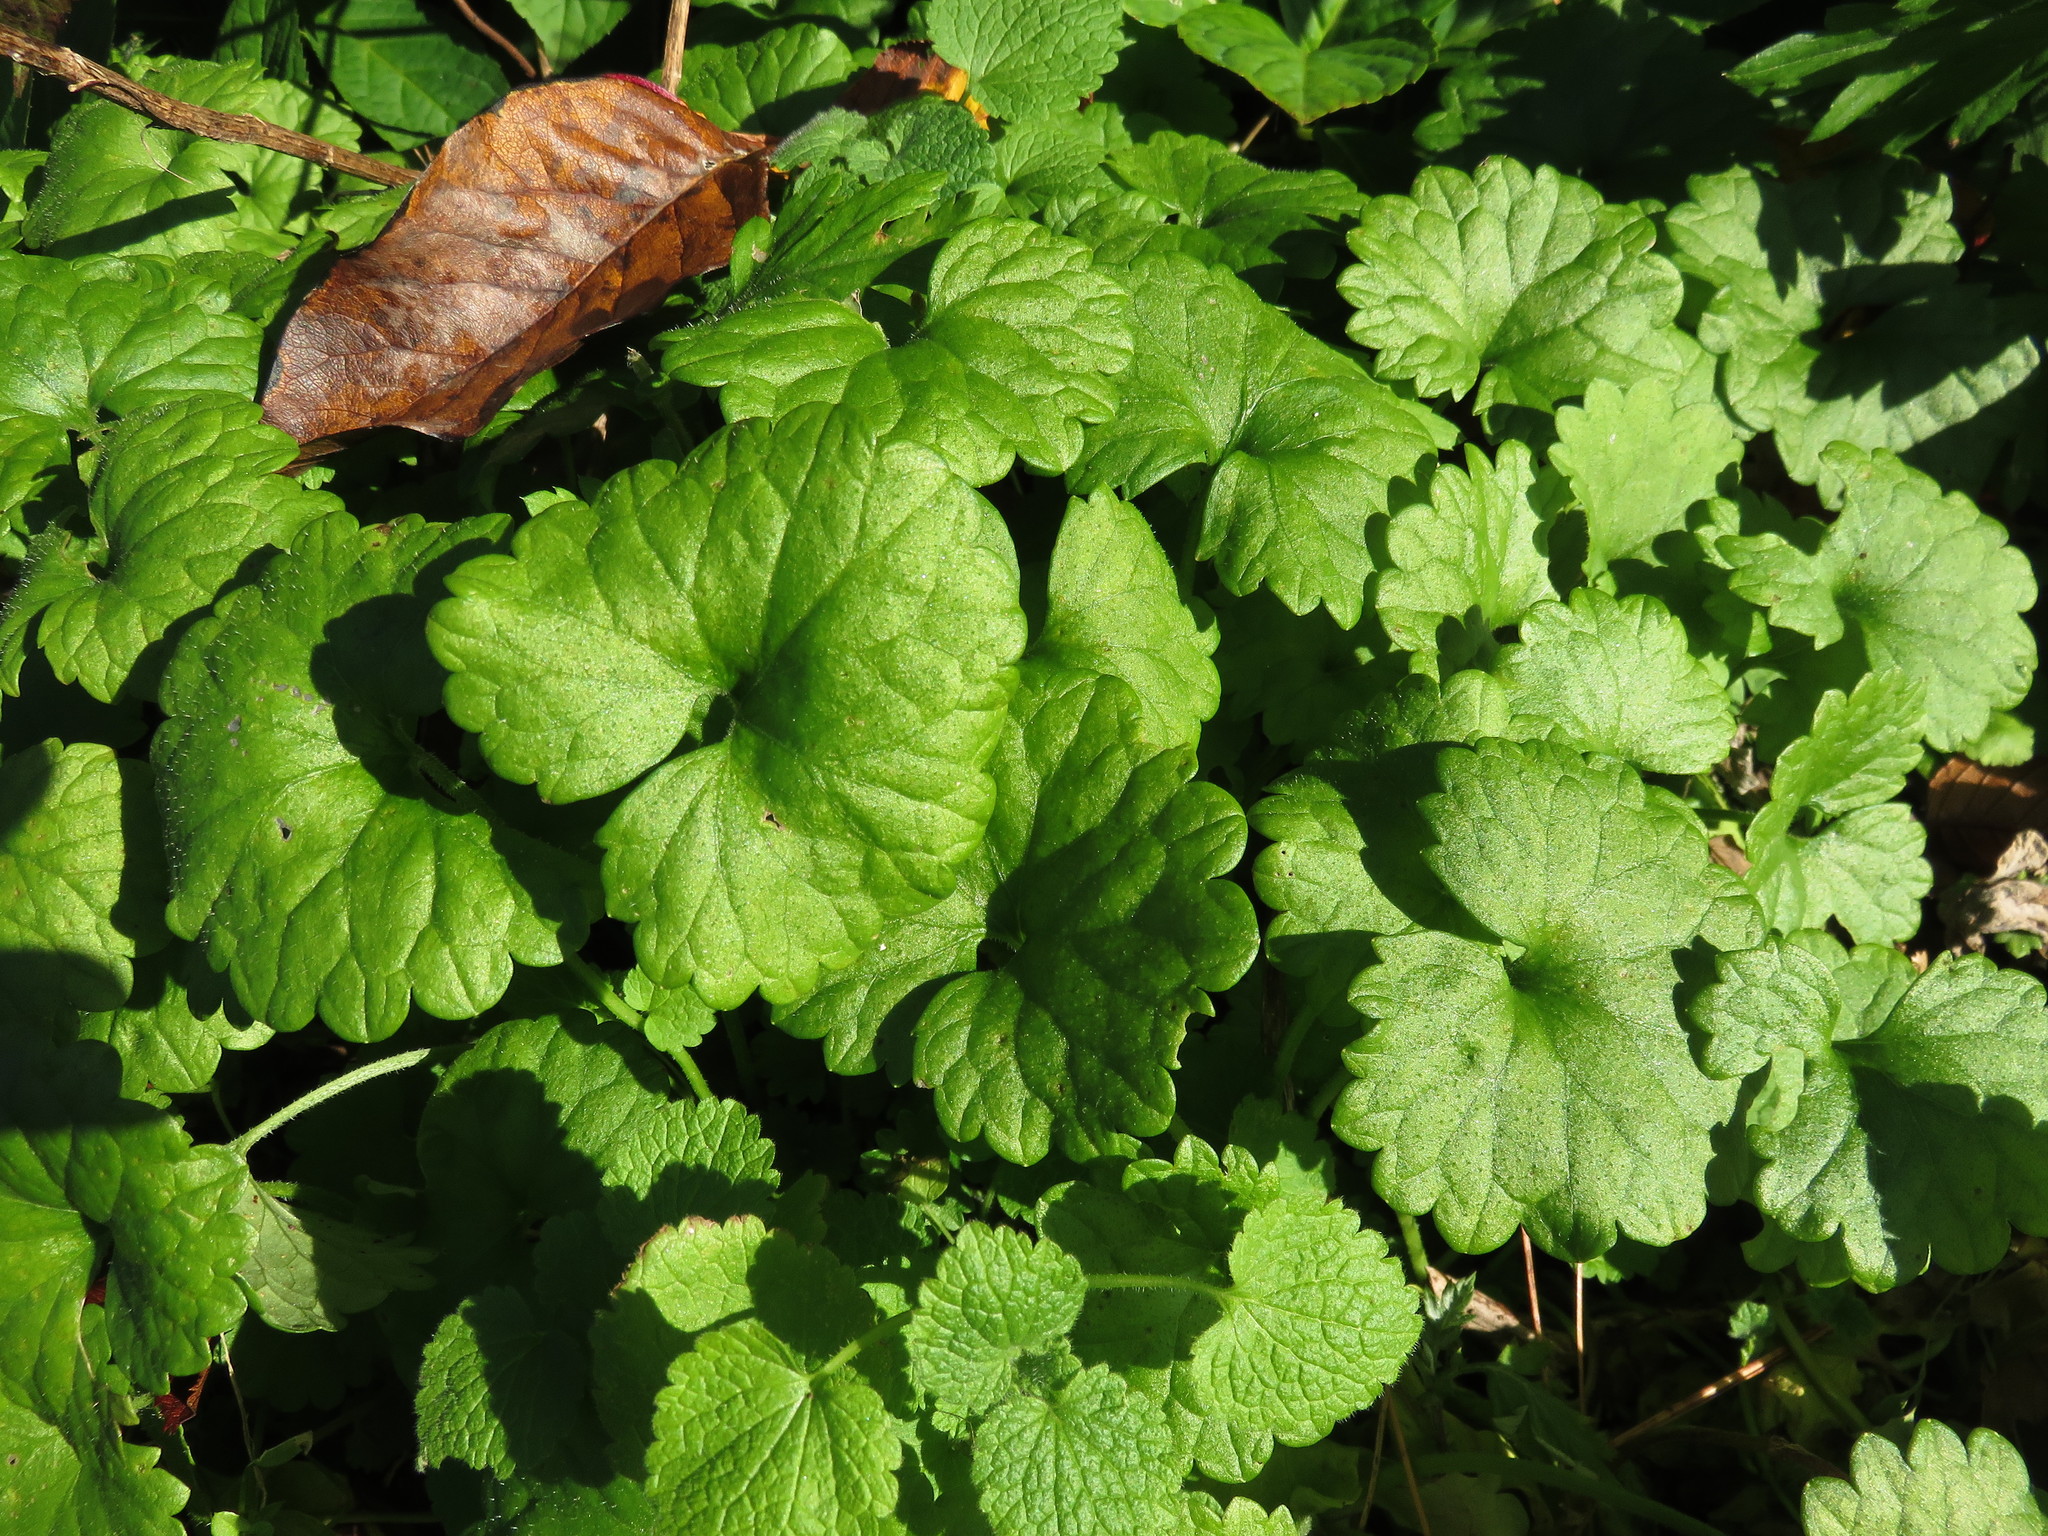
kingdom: Plantae
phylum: Tracheophyta
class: Magnoliopsida
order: Lamiales
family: Lamiaceae
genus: Glechoma
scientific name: Glechoma hederacea
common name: Ground ivy
